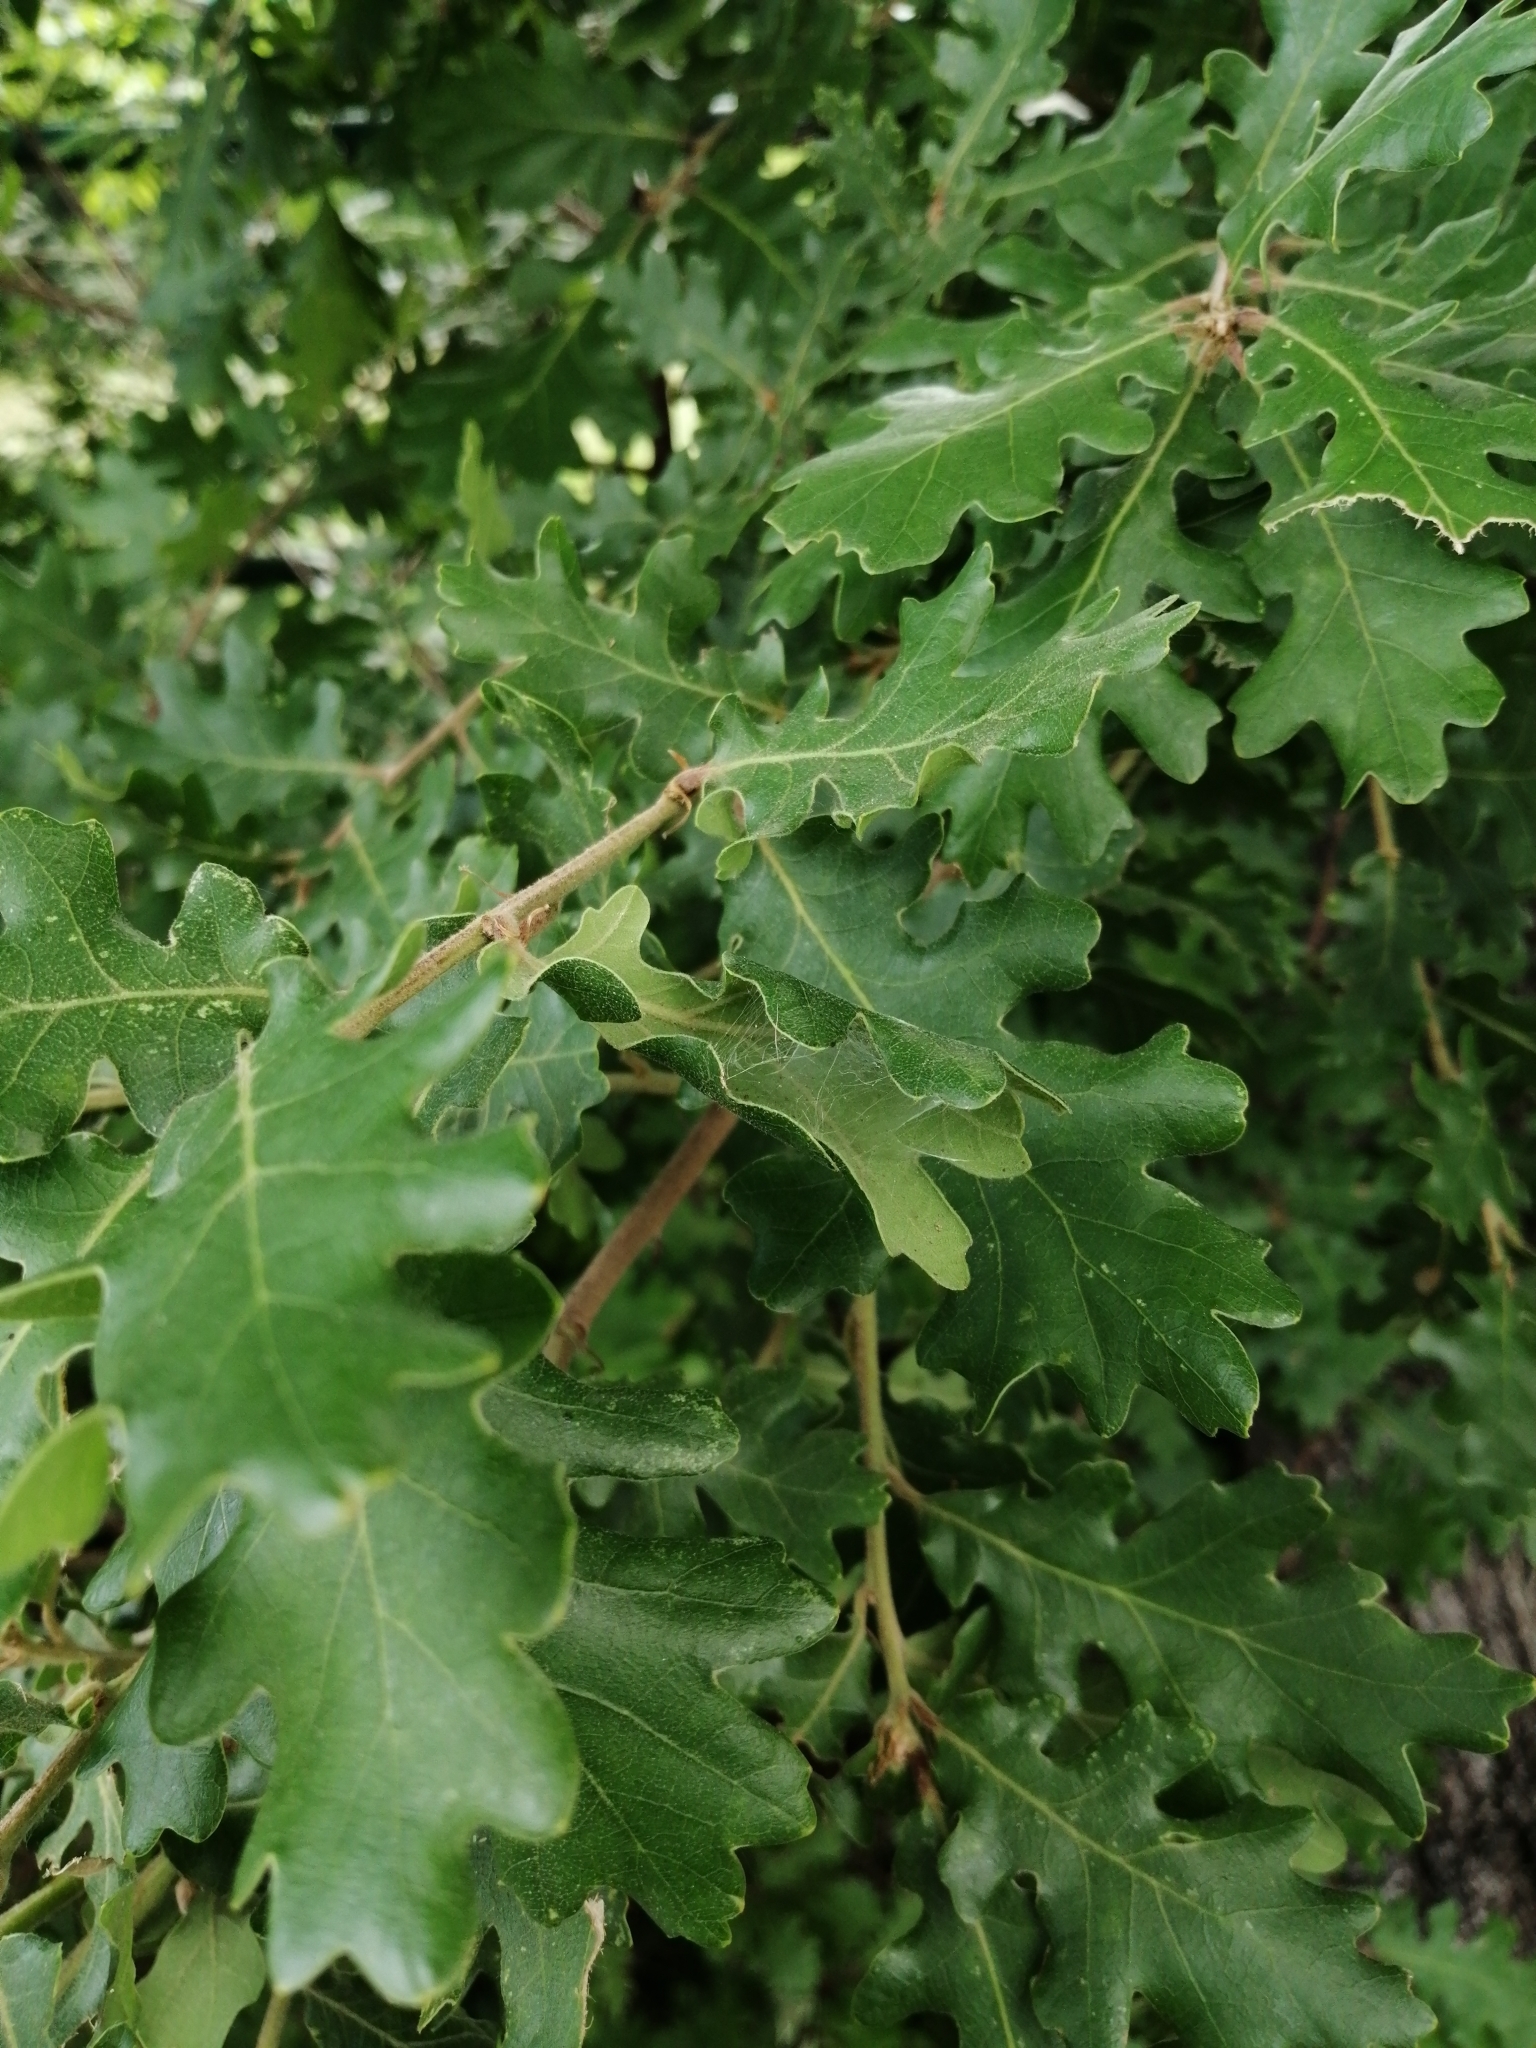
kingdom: Plantae
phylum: Tracheophyta
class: Magnoliopsida
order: Fagales
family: Fagaceae
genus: Quercus
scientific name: Quercus pubescens
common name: Downy oak
